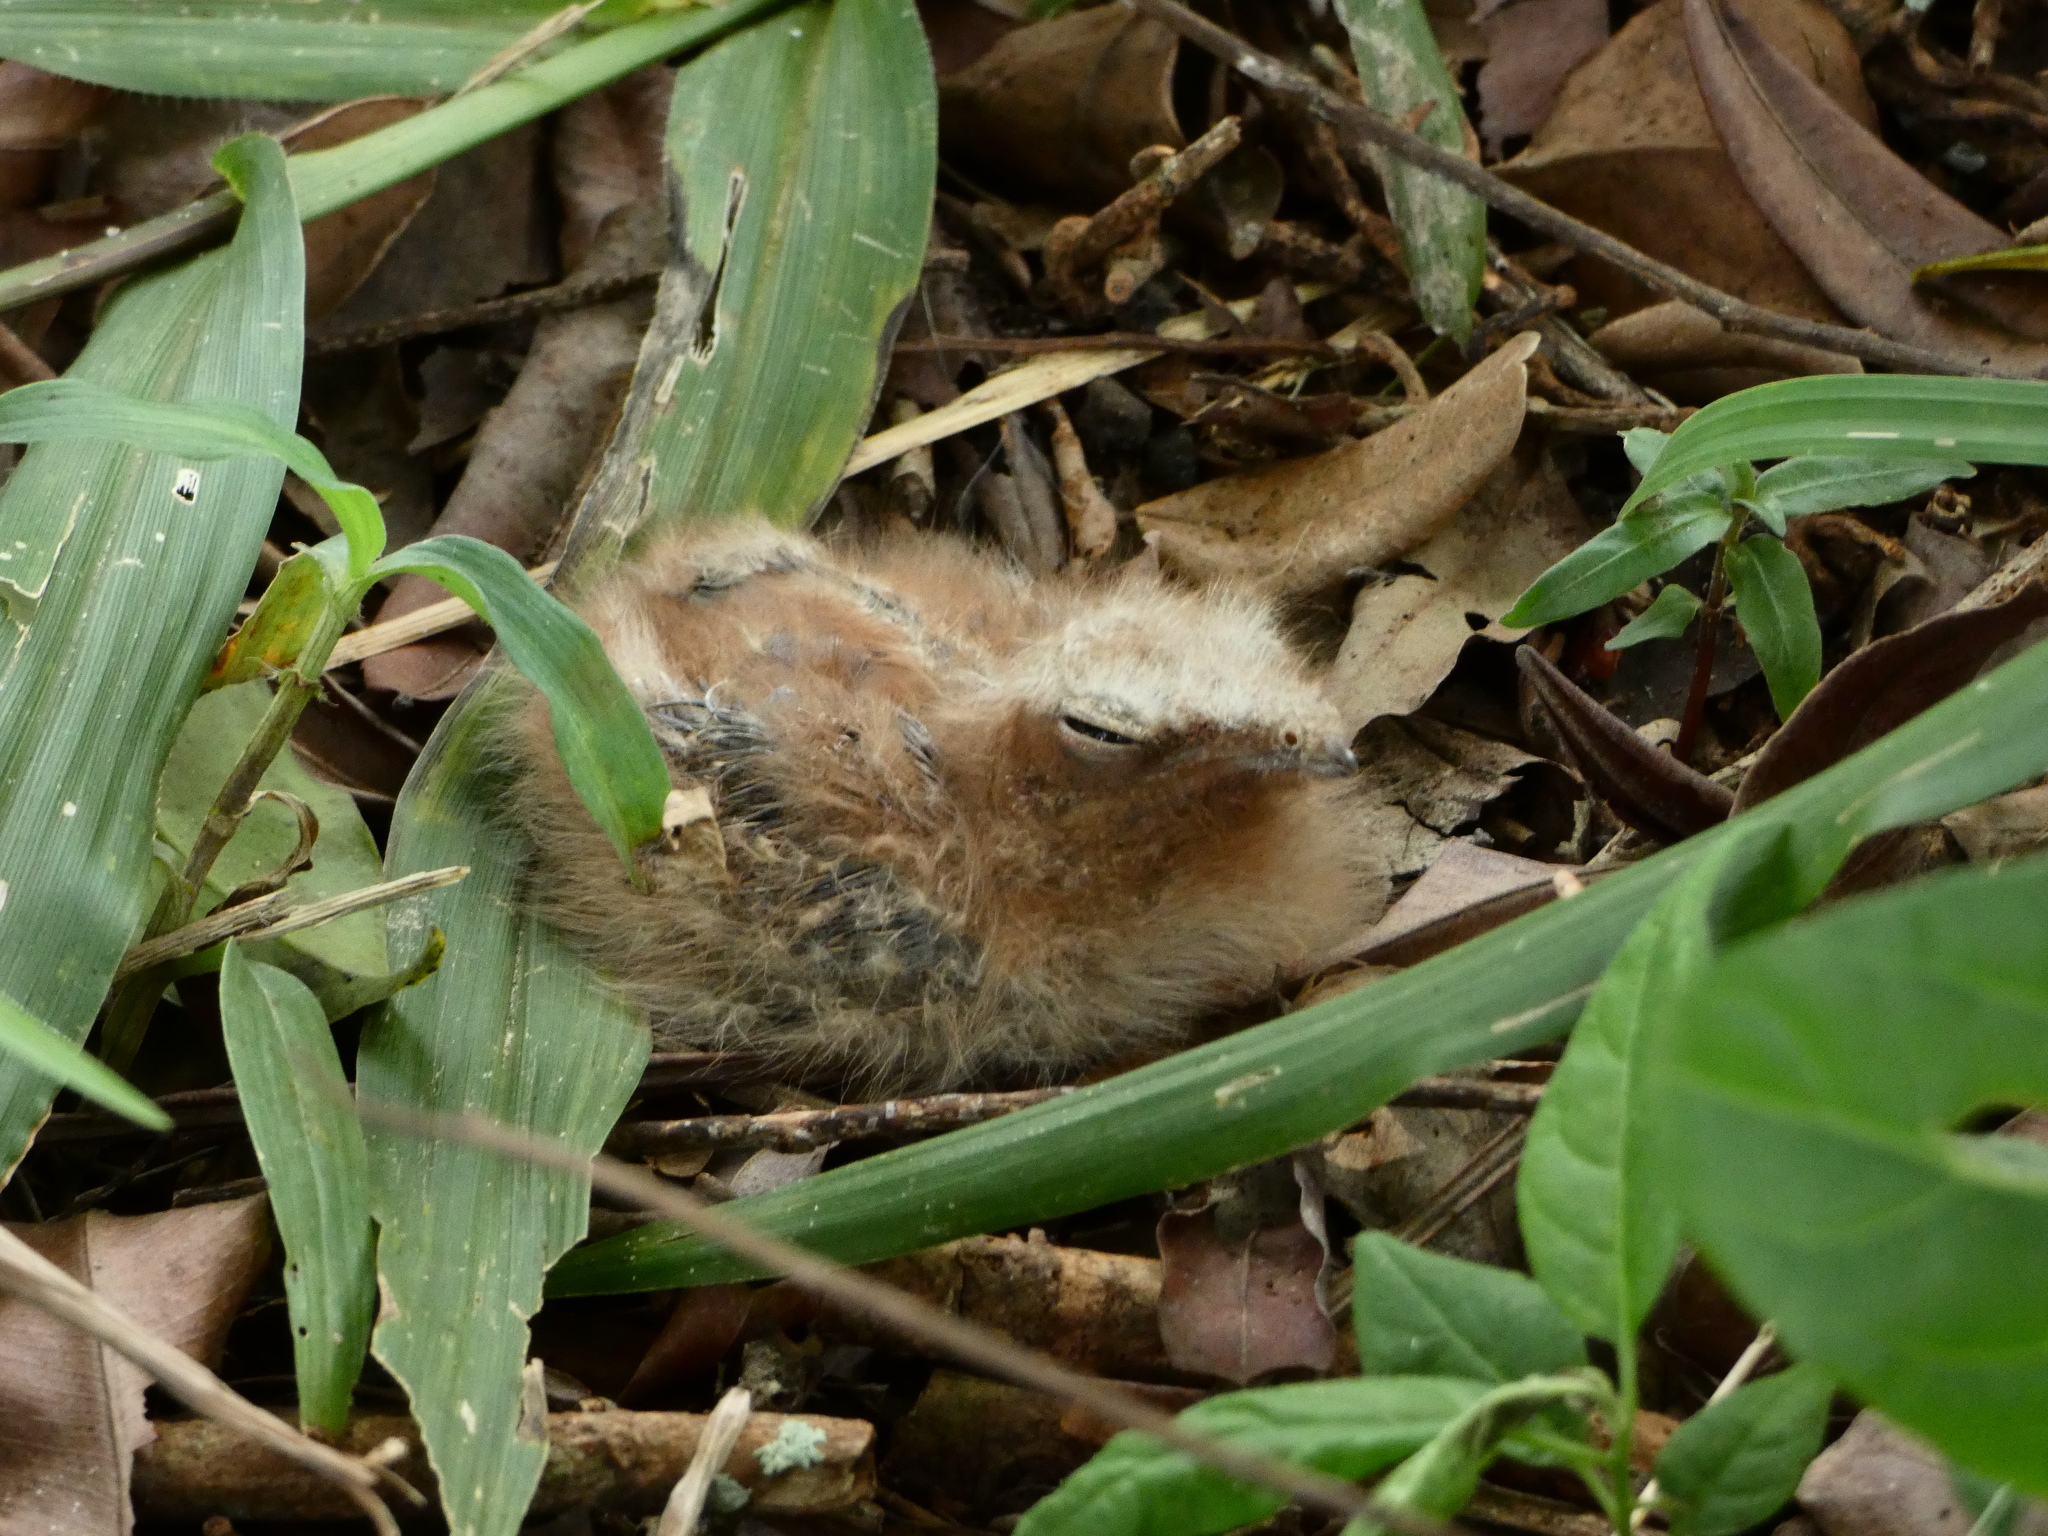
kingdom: Animalia
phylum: Chordata
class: Aves
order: Caprimulgiformes
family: Caprimulgidae
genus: Nyctidromus
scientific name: Nyctidromus albicollis
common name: Pauraque
